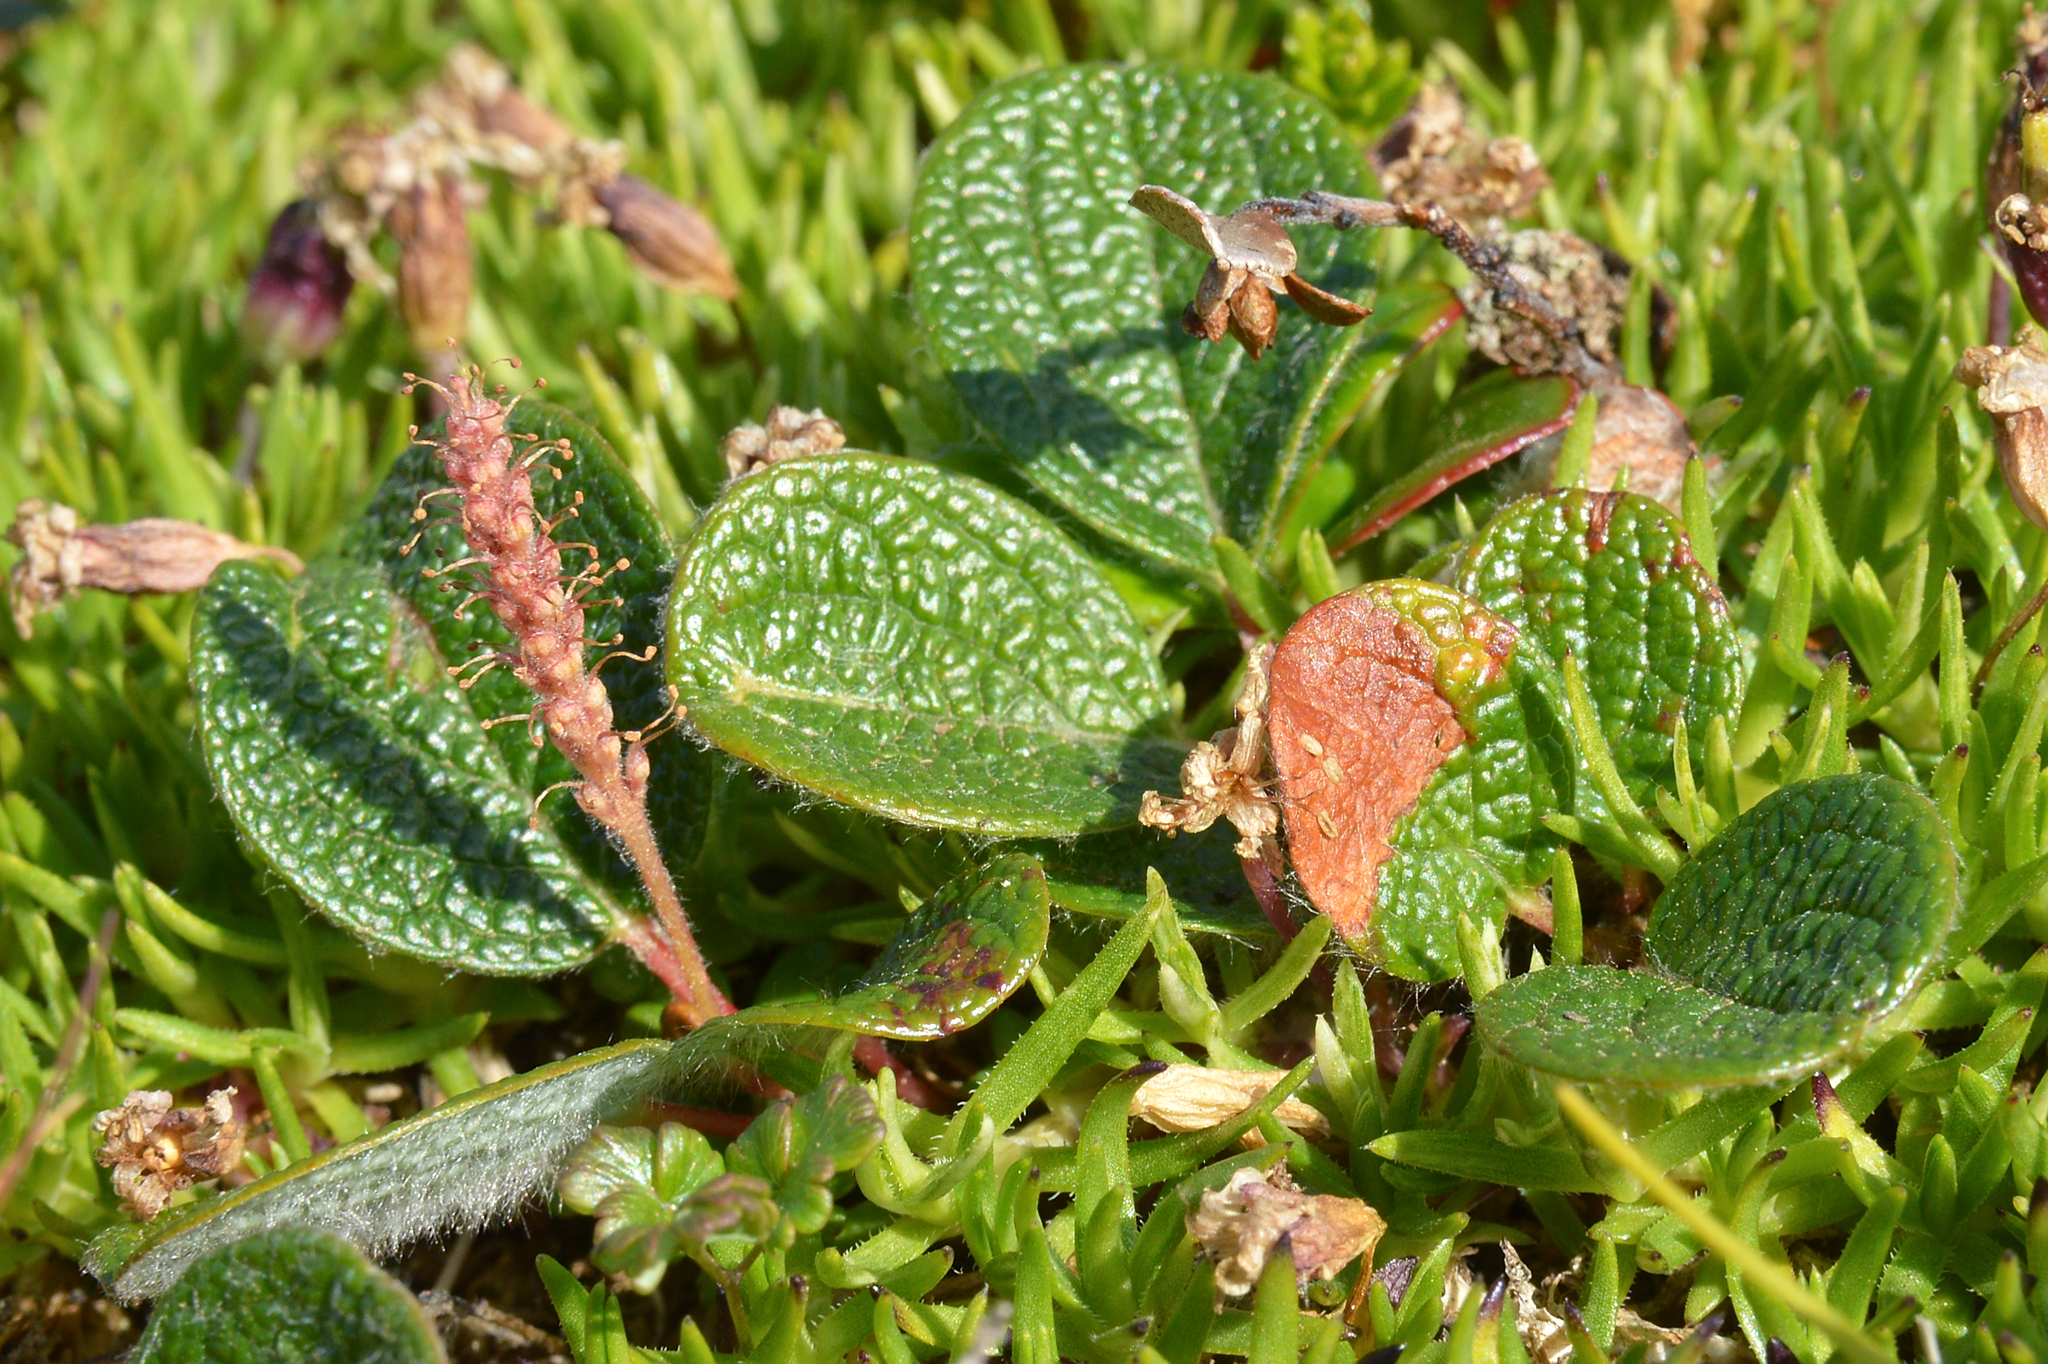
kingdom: Plantae
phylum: Tracheophyta
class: Magnoliopsida
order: Malpighiales
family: Salicaceae
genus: Salix
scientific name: Salix reticulata
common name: Net-leaved willow
